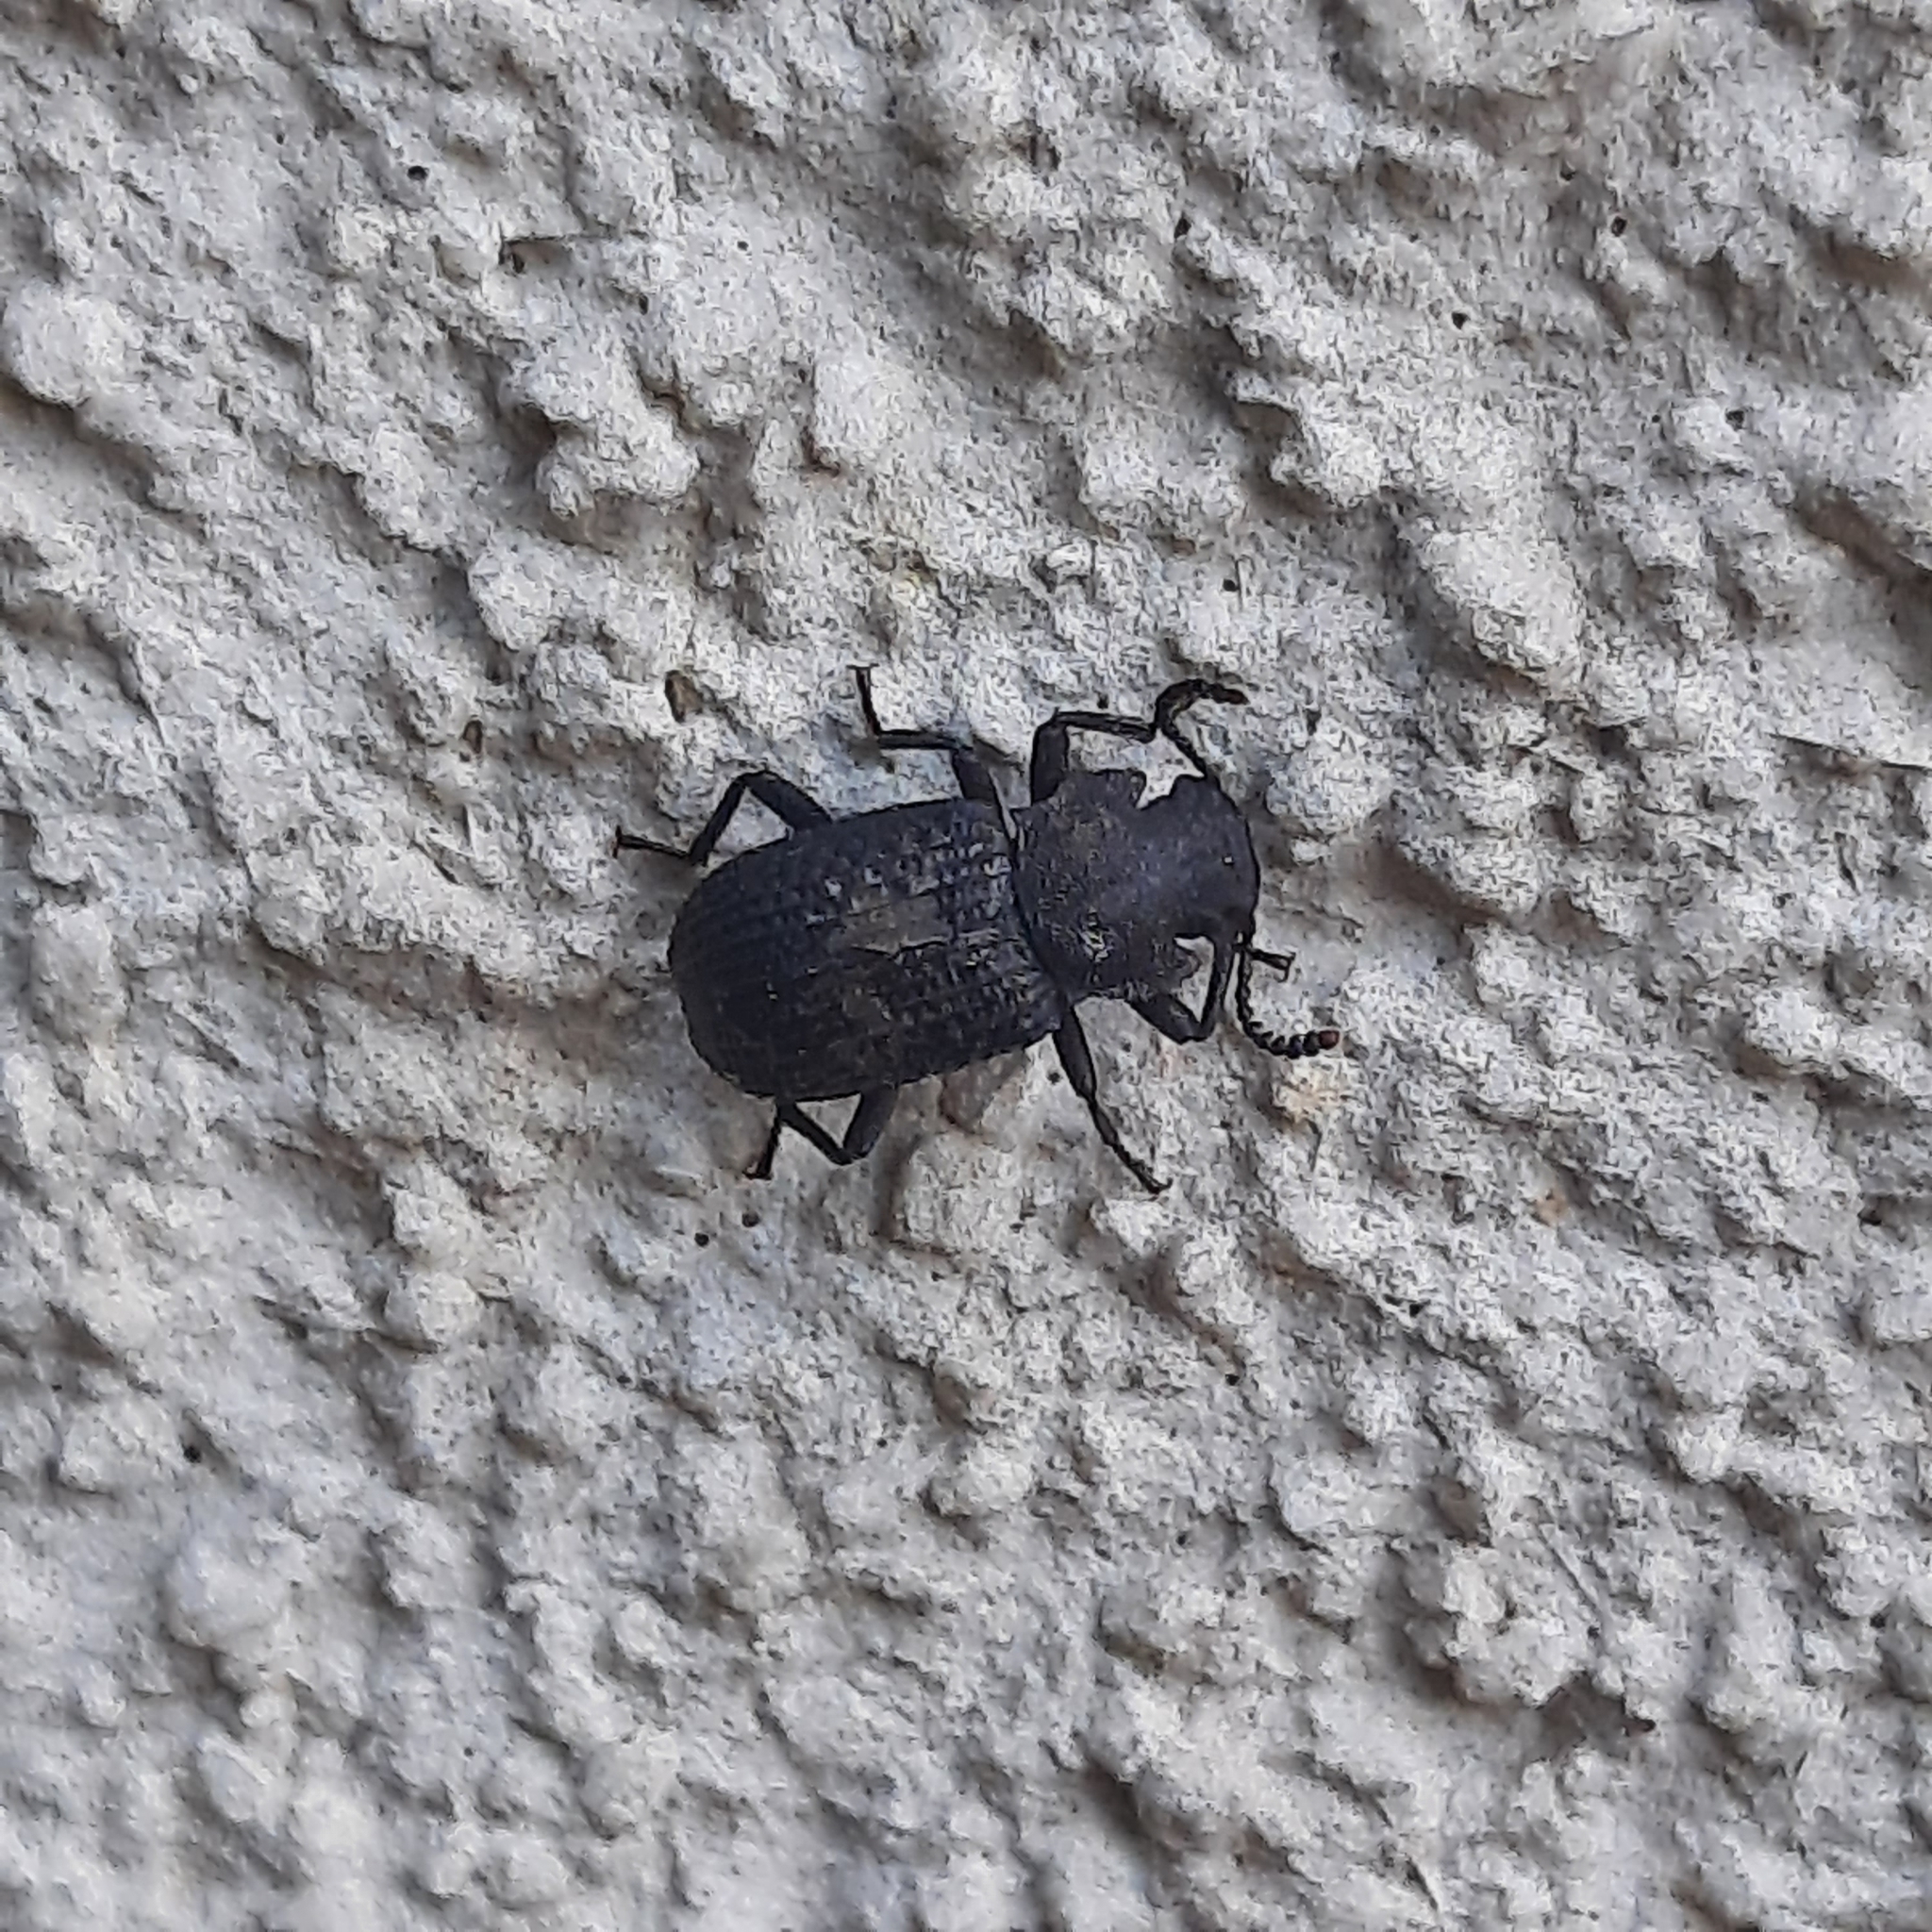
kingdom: Animalia
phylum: Arthropoda
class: Insecta
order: Coleoptera
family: Tenebrionidae
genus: Bolitophagus
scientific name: Bolitophagus reticulatus
